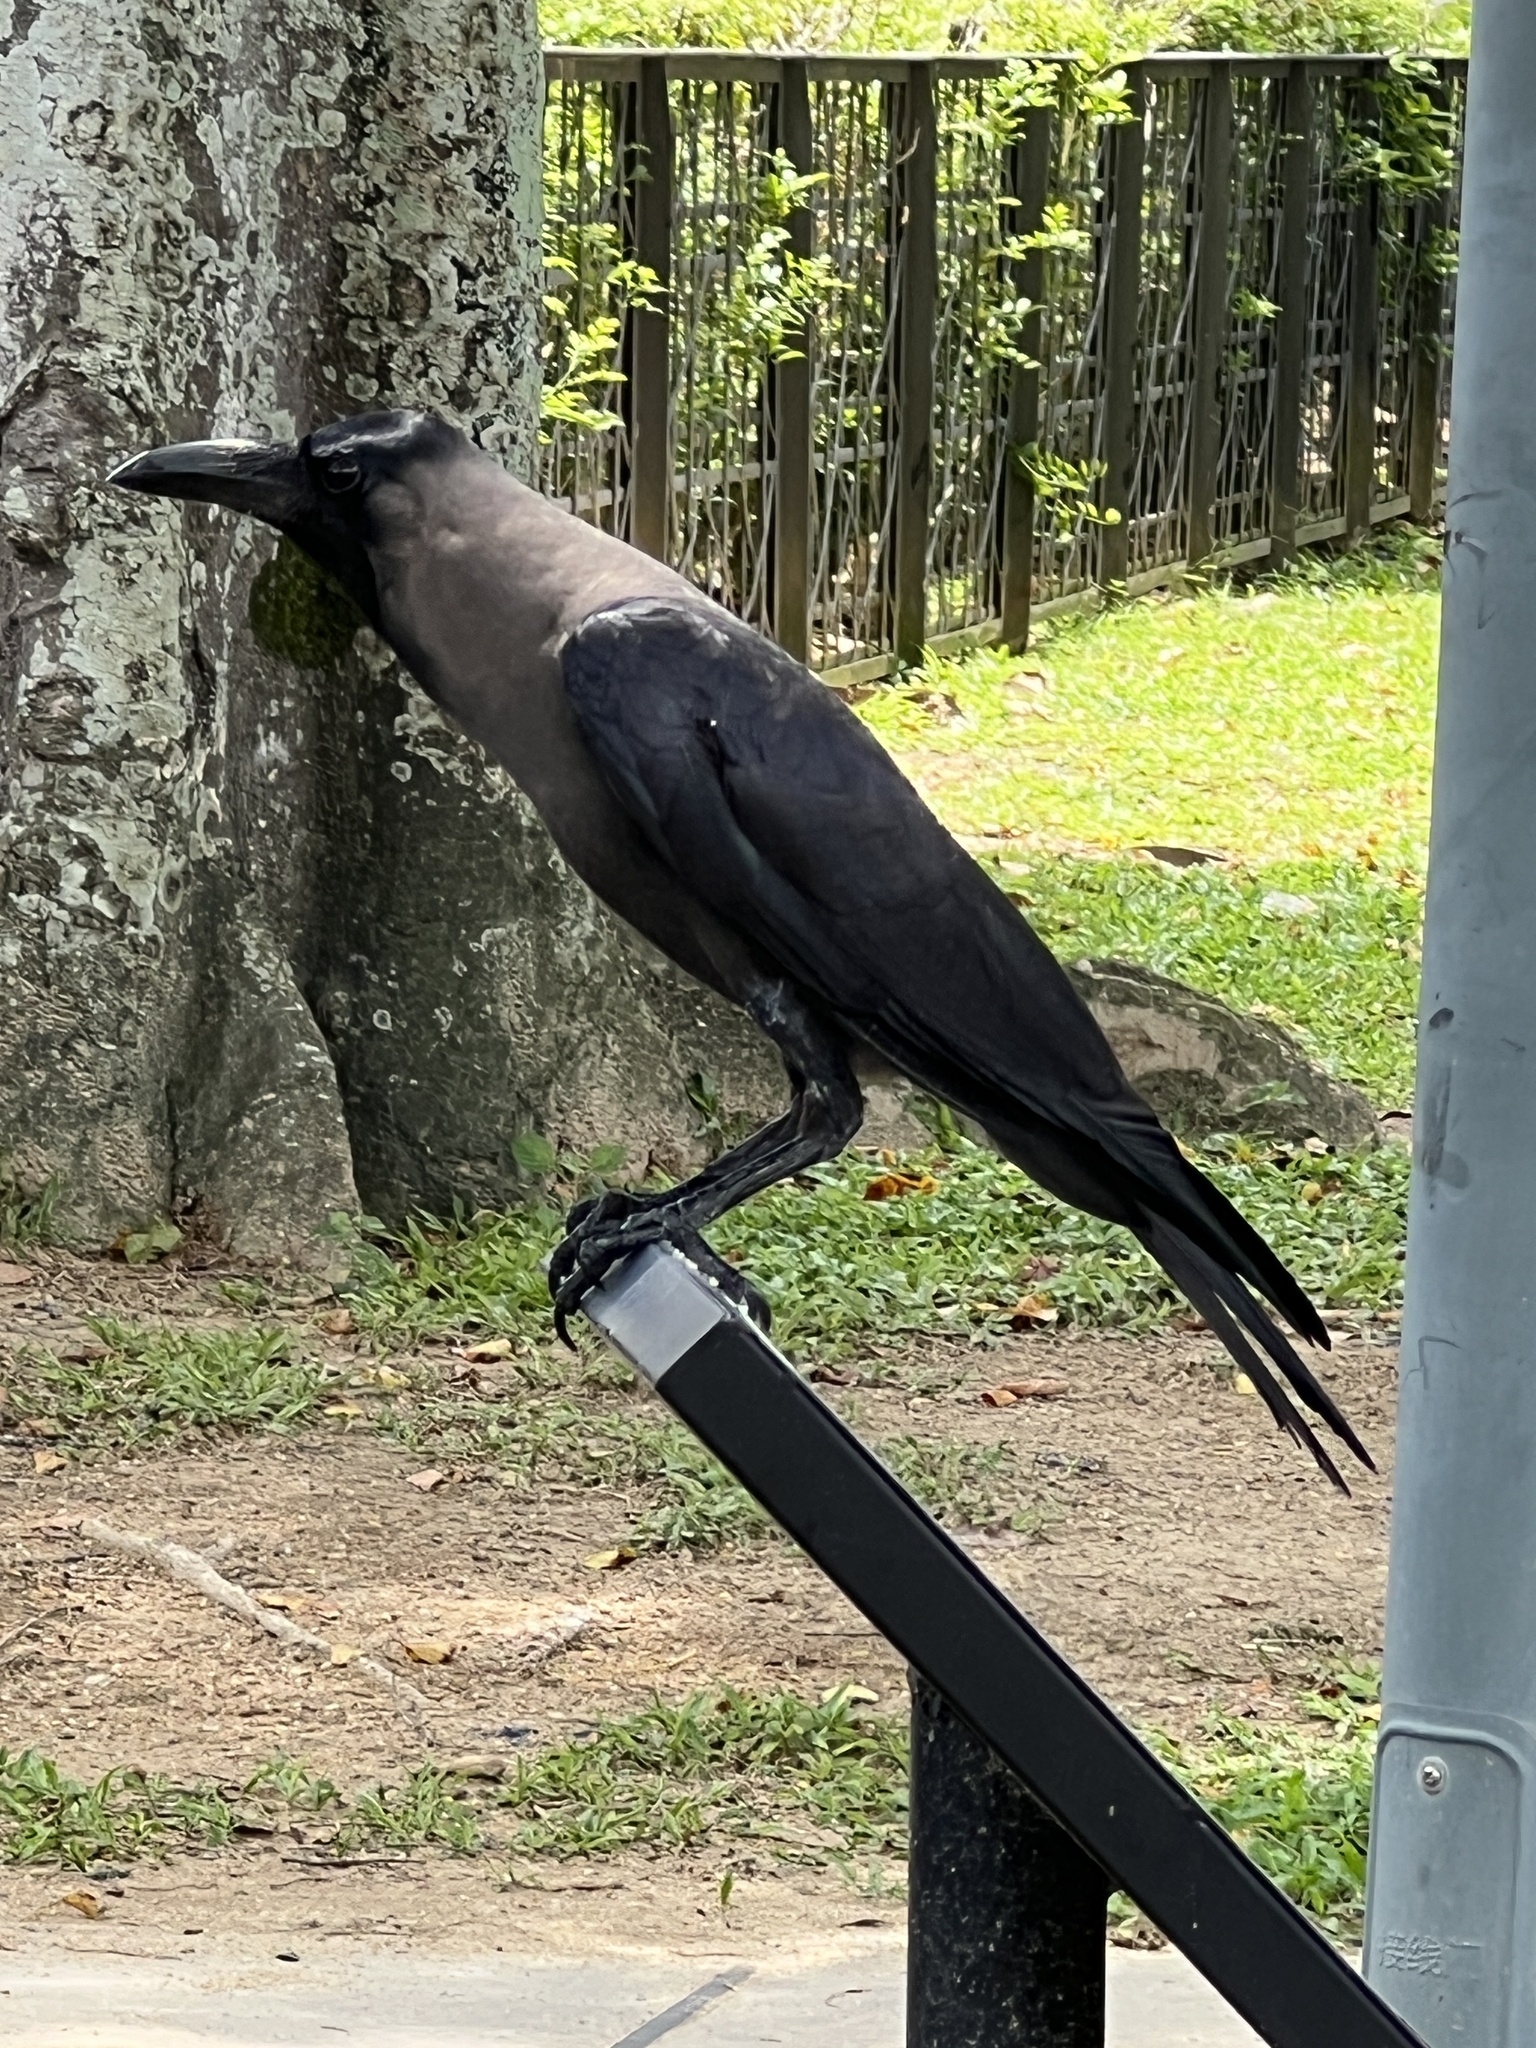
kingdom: Animalia
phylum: Chordata
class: Aves
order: Passeriformes
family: Corvidae
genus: Corvus
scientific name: Corvus splendens
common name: House crow
